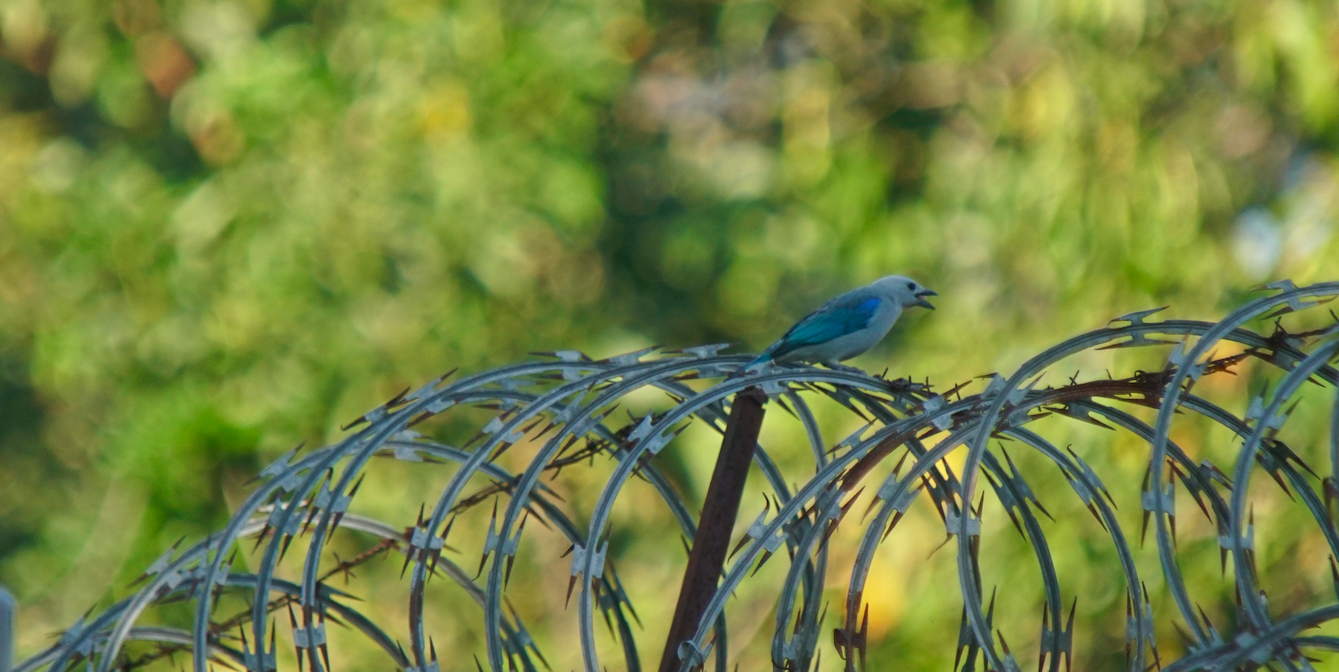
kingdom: Animalia
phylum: Chordata
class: Aves
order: Passeriformes
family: Thraupidae
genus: Thraupis
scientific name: Thraupis episcopus
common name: Blue-grey tanager
